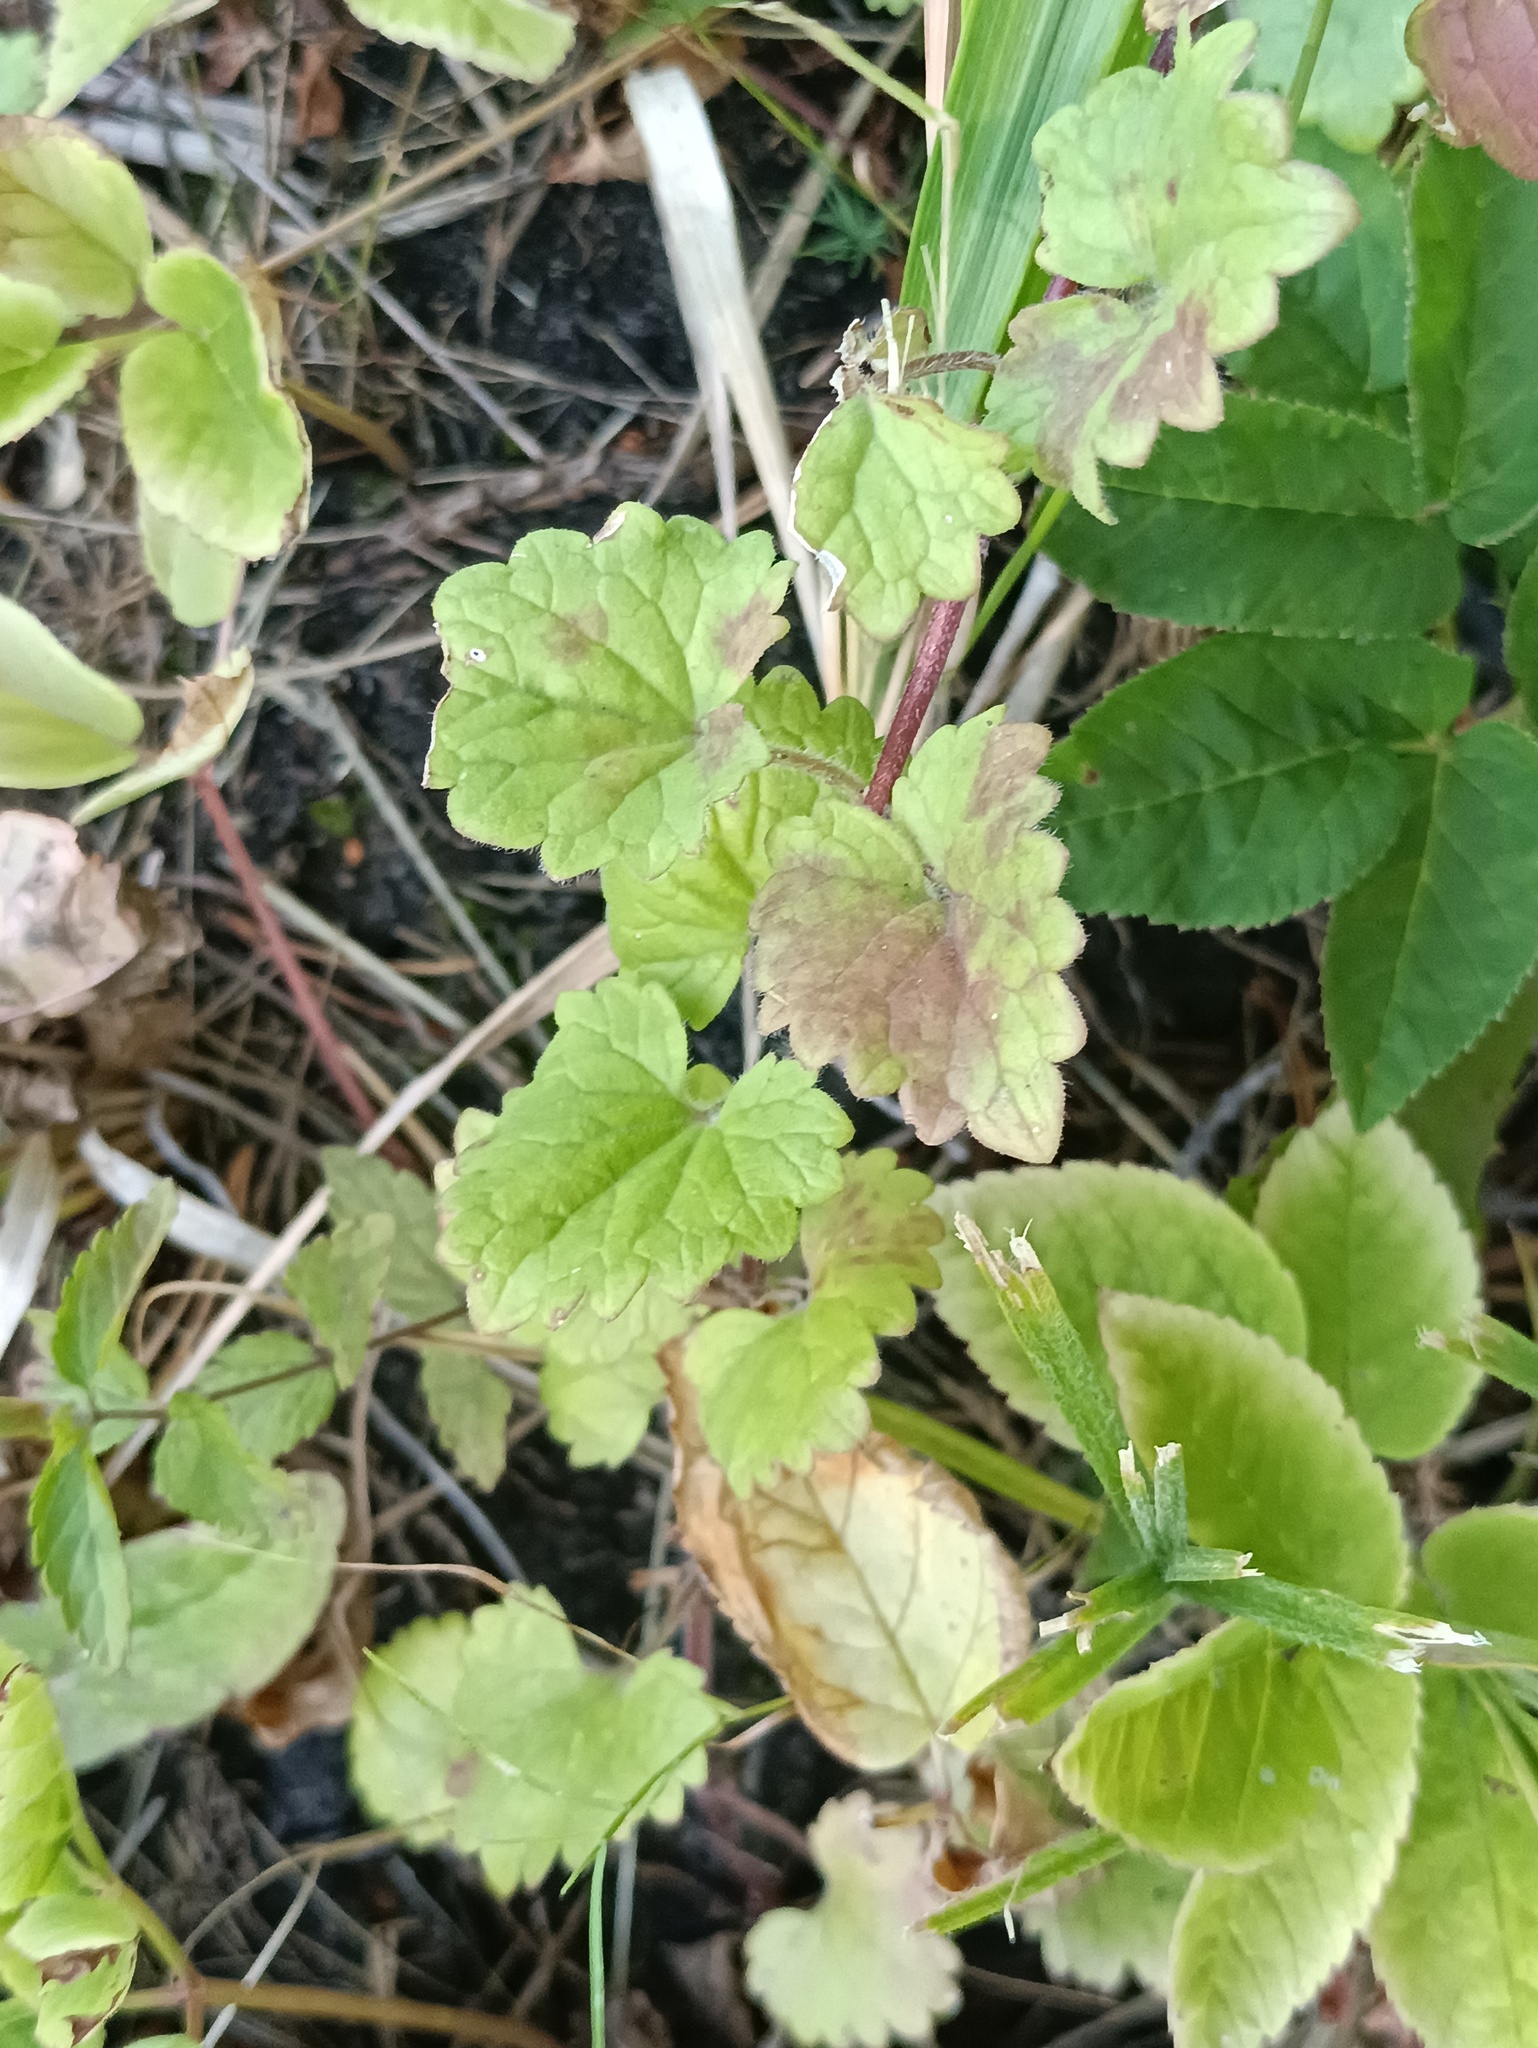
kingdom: Plantae
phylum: Tracheophyta
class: Magnoliopsida
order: Lamiales
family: Lamiaceae
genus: Glechoma
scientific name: Glechoma hederacea
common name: Ground ivy
